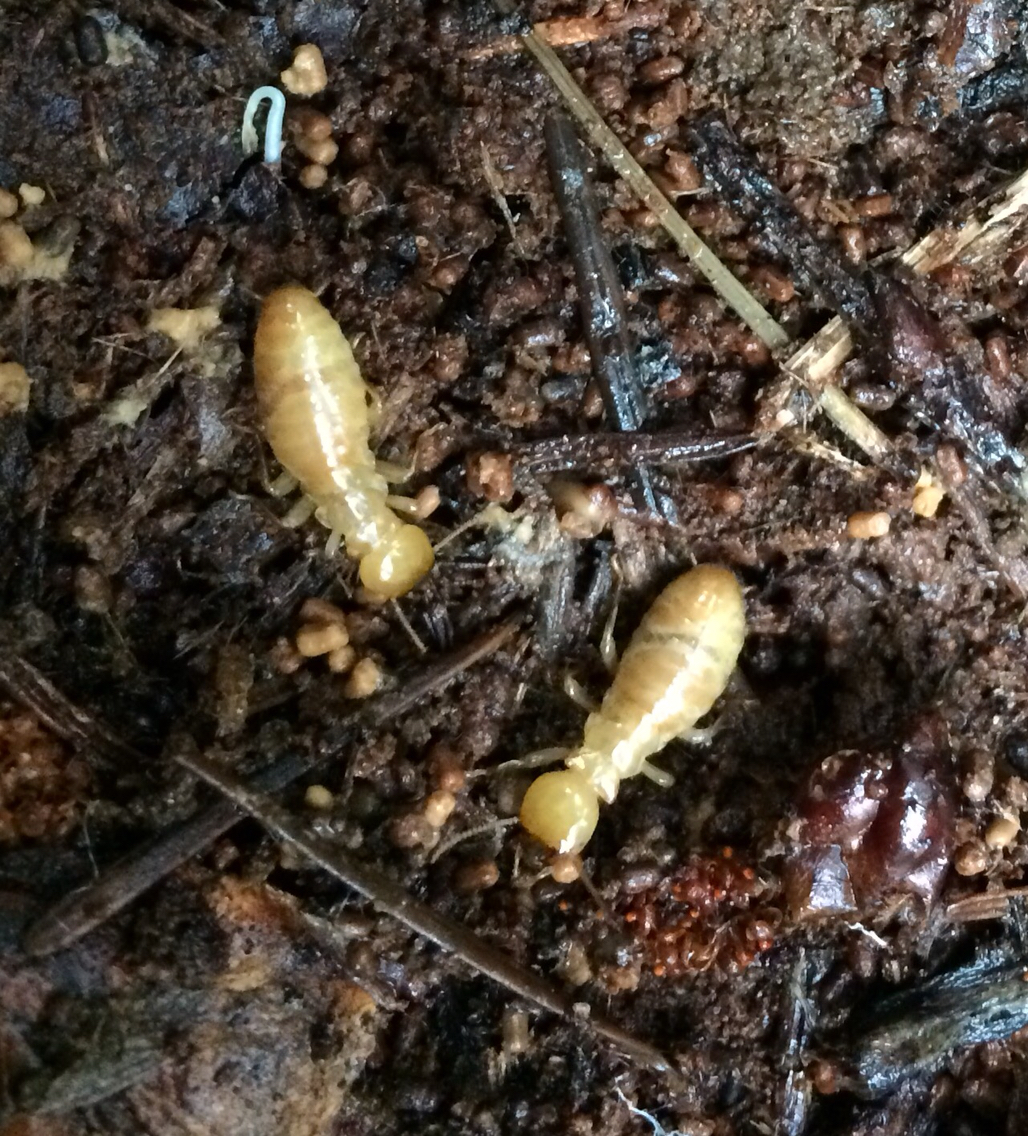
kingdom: Animalia
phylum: Arthropoda
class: Insecta
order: Blattodea
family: Archotermopsidae
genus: Zootermopsis
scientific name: Zootermopsis
